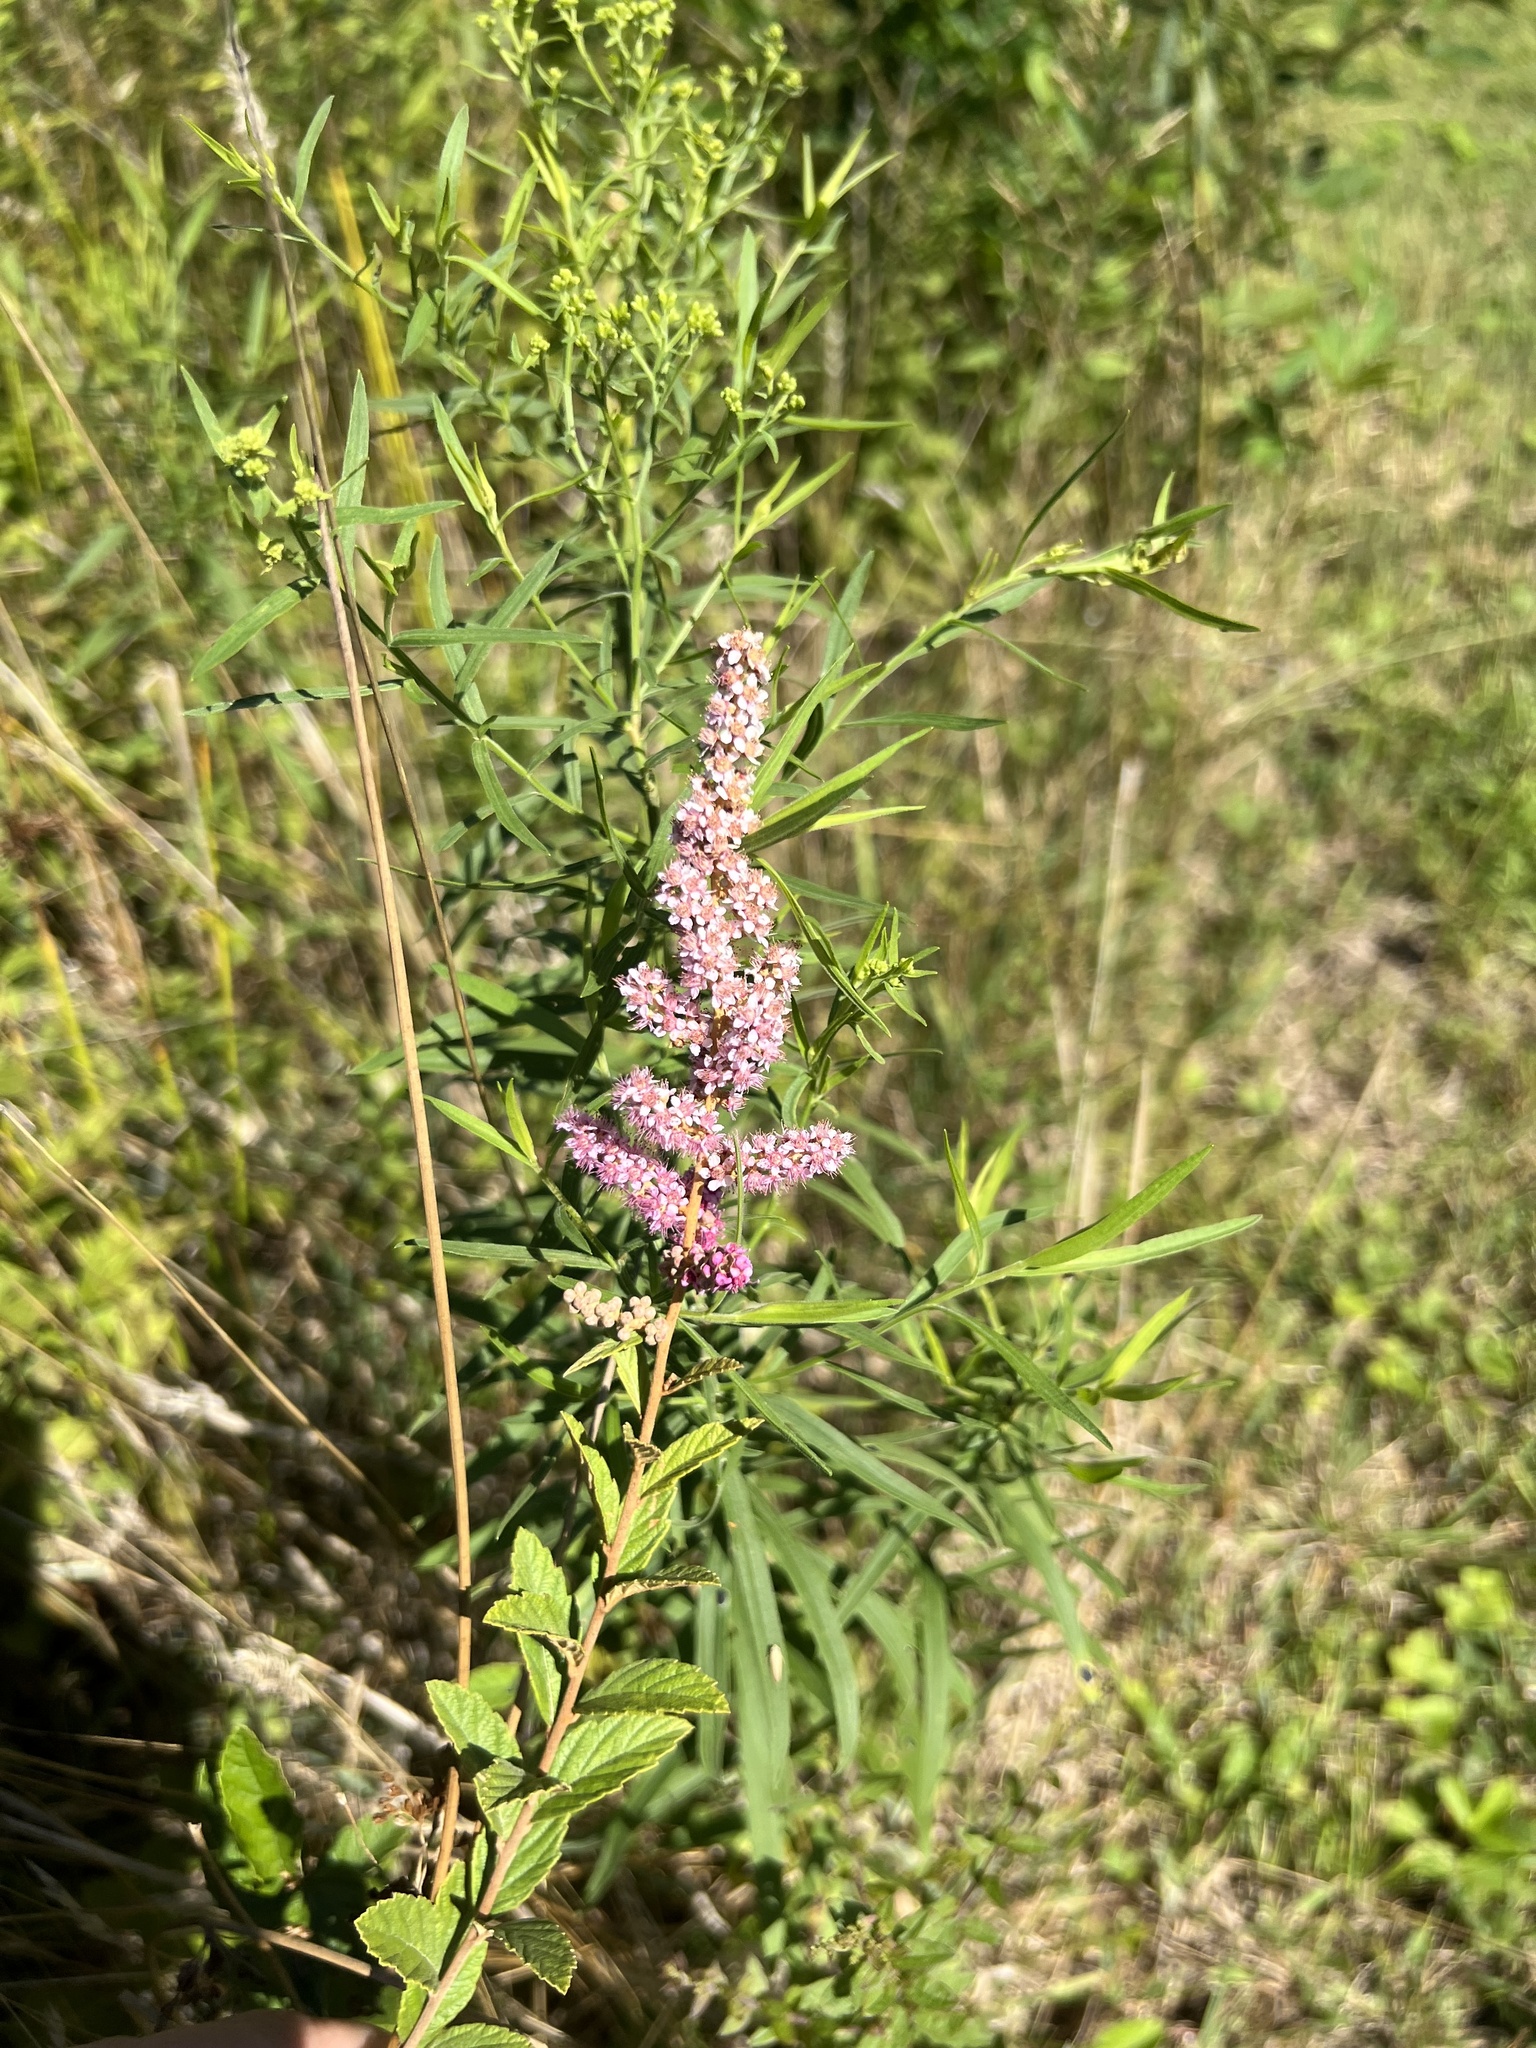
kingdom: Plantae
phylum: Tracheophyta
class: Magnoliopsida
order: Rosales
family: Rosaceae
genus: Spiraea
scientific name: Spiraea tomentosa
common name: Hardhack
